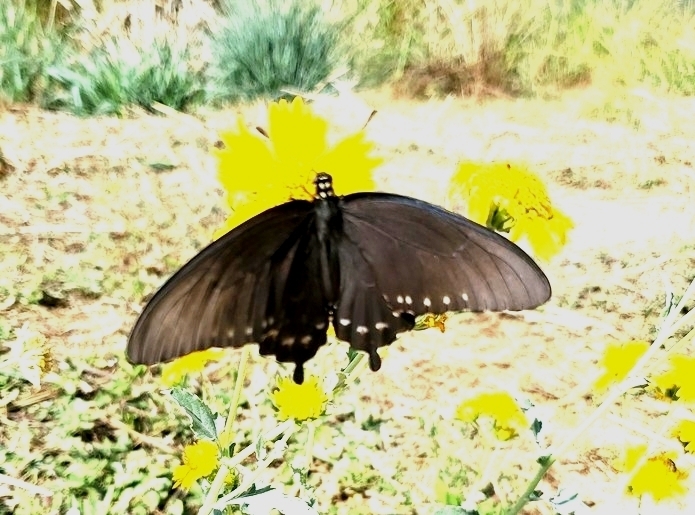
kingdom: Animalia
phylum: Arthropoda
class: Insecta
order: Lepidoptera
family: Papilionidae
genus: Battus
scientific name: Battus philenor
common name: Pipevine swallowtail
